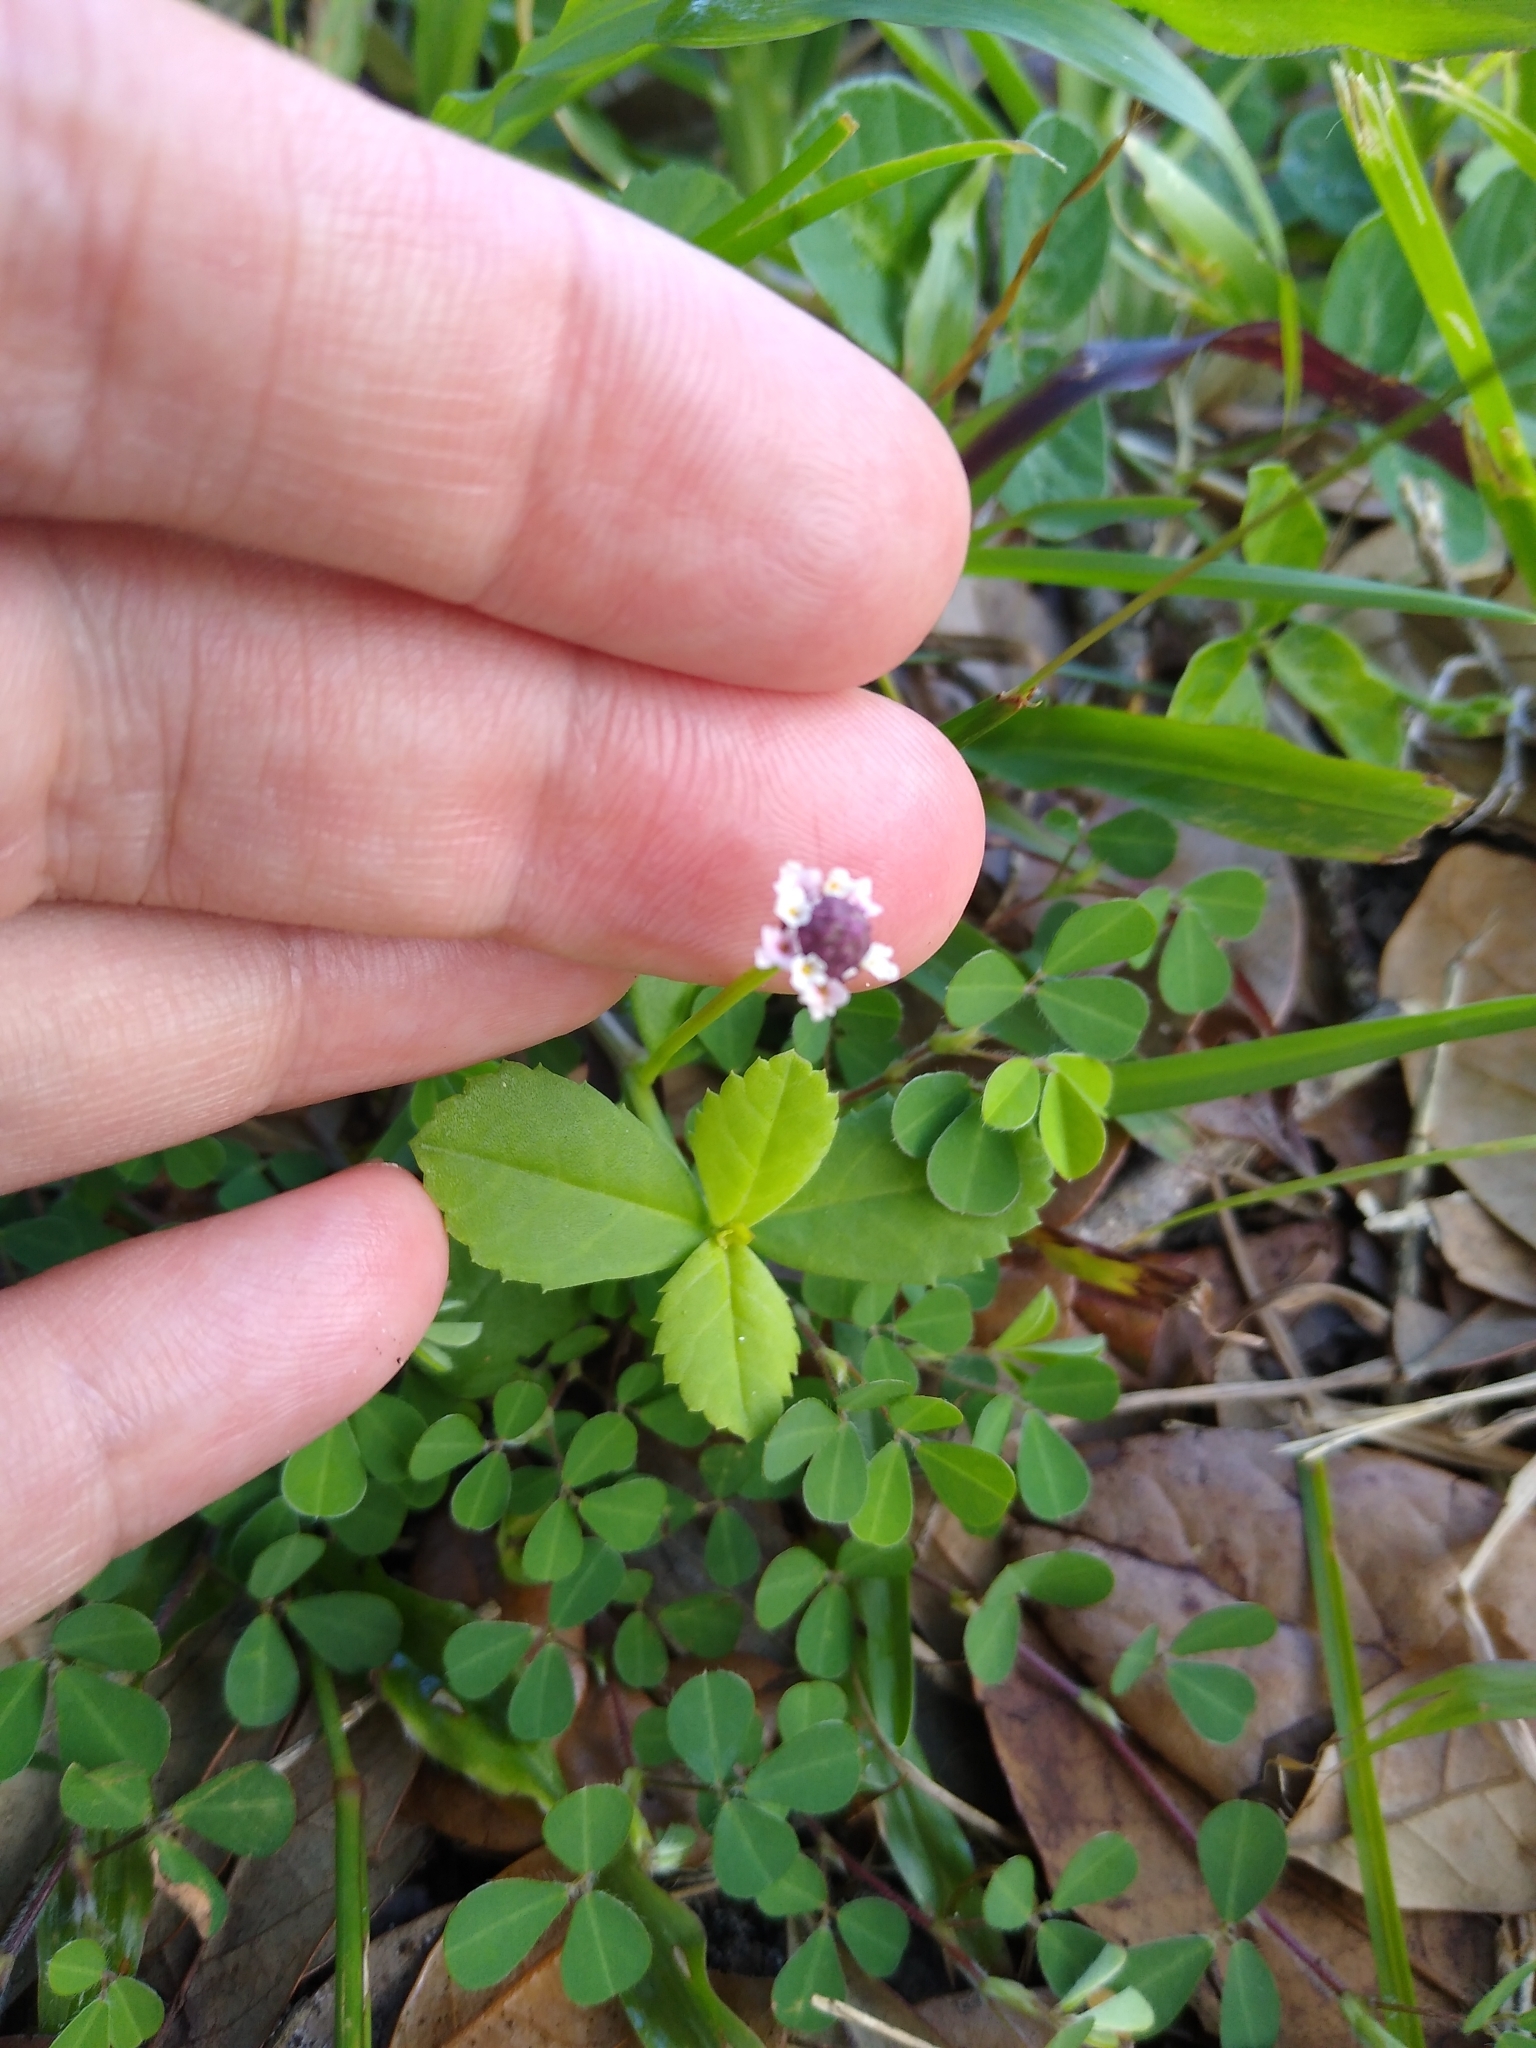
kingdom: Plantae
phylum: Tracheophyta
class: Magnoliopsida
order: Lamiales
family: Verbenaceae
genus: Phyla
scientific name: Phyla nodiflora
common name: Frogfruit
